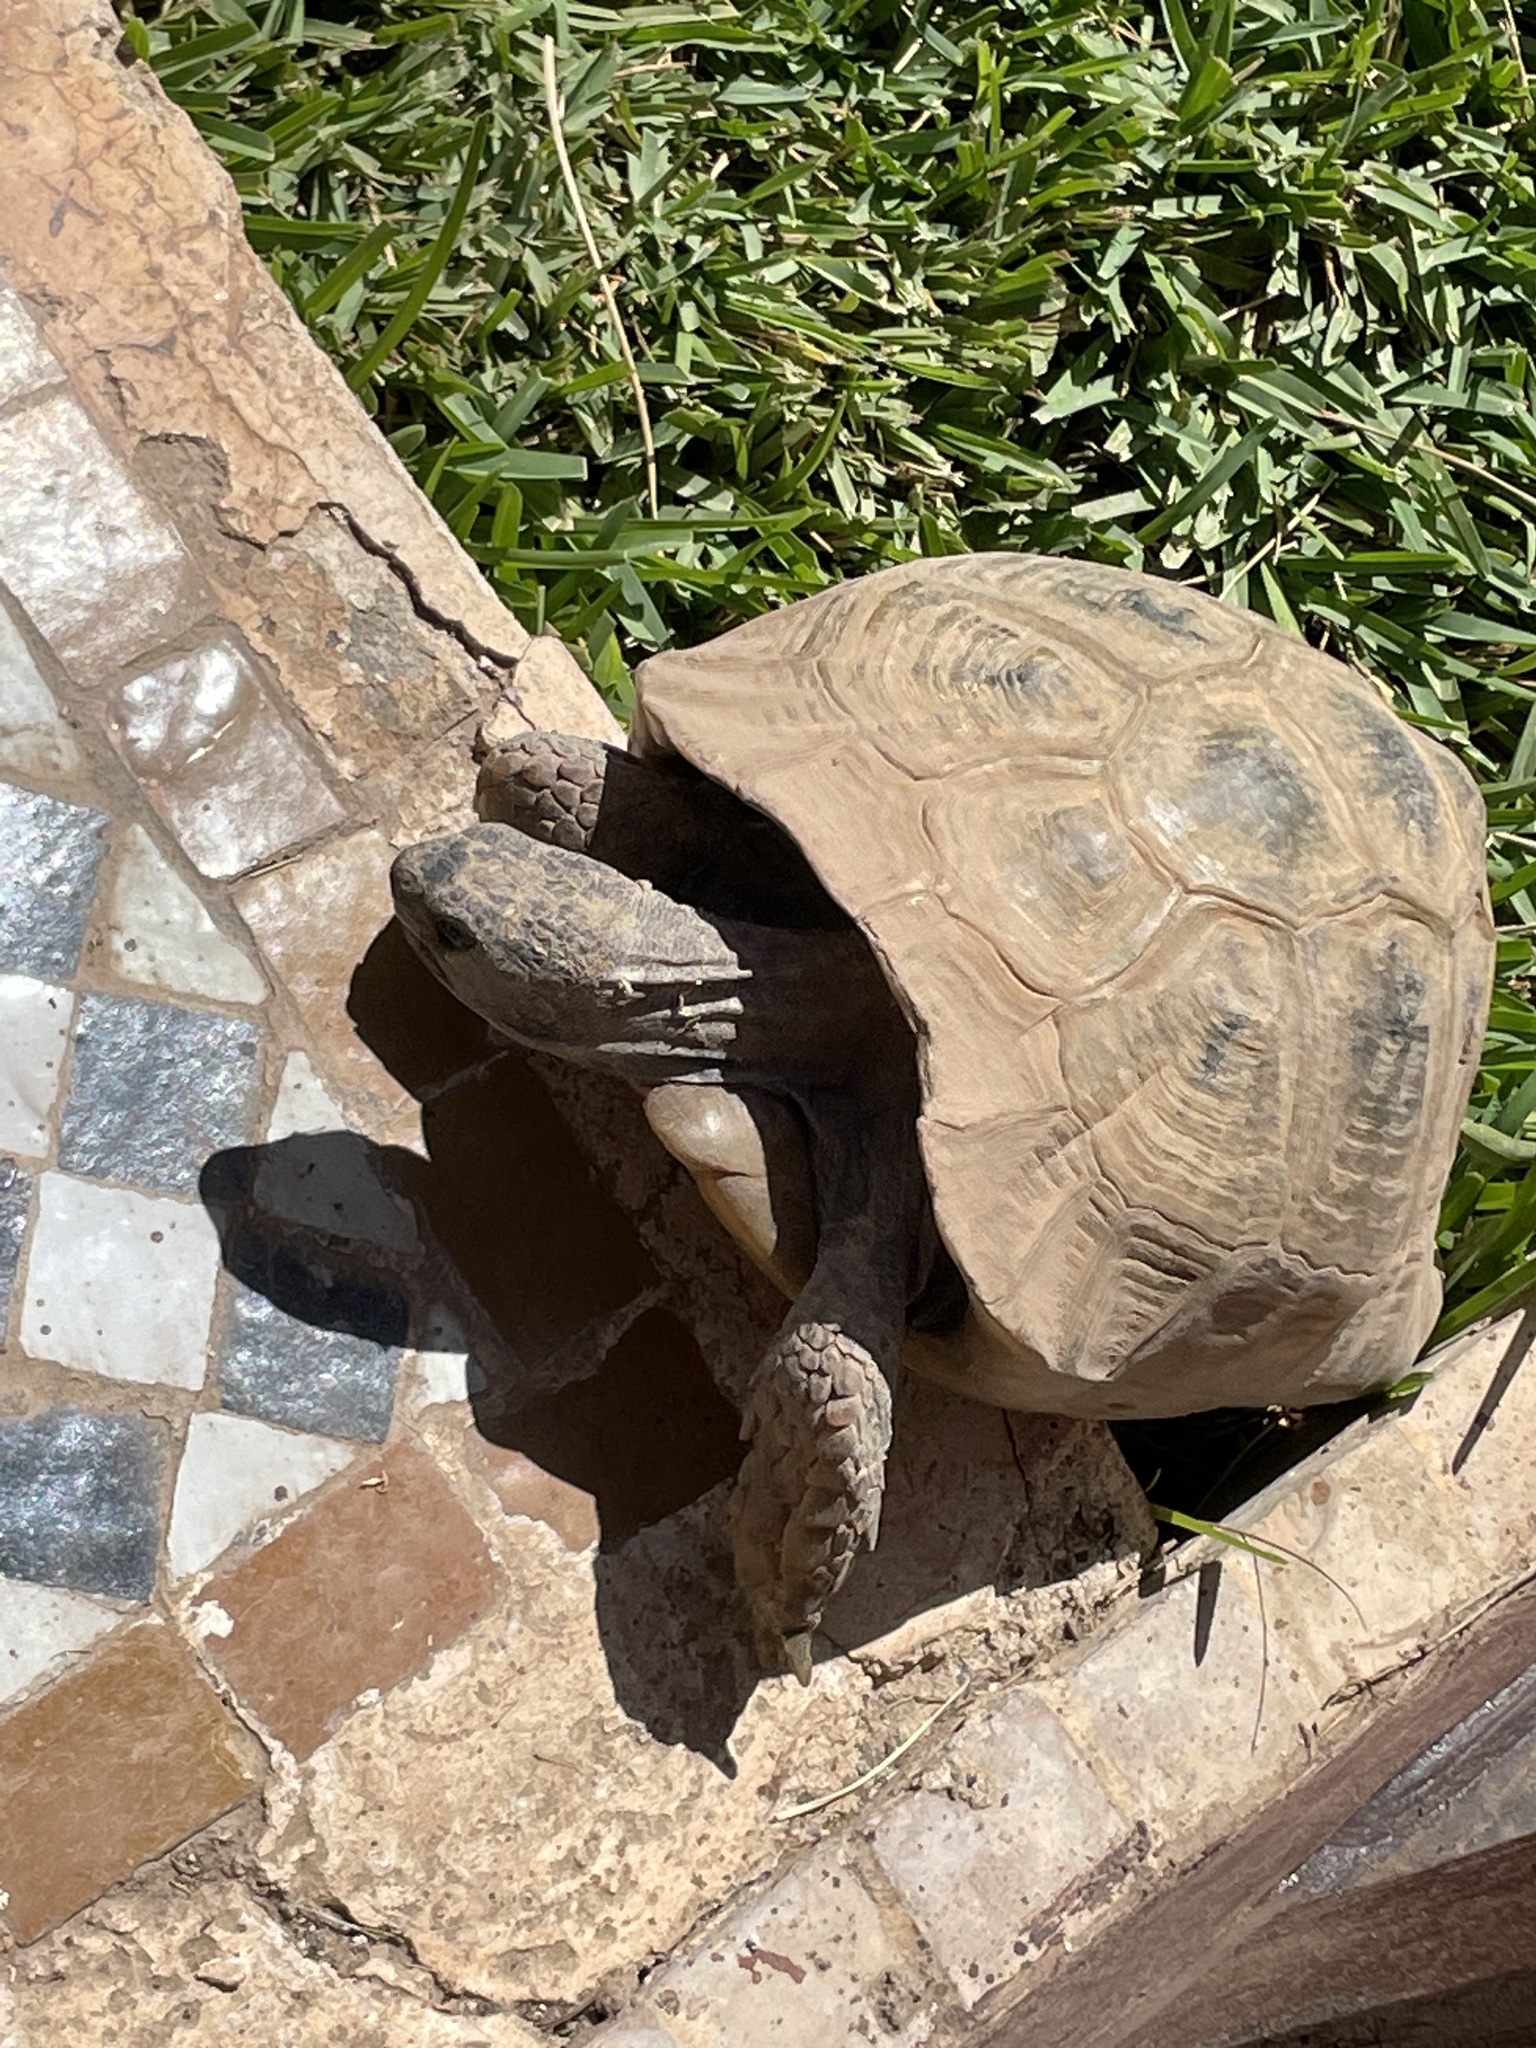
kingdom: Animalia
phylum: Chordata
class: Testudines
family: Testudinidae
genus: Testudo
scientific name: Testudo graeca
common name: Common tortoise
